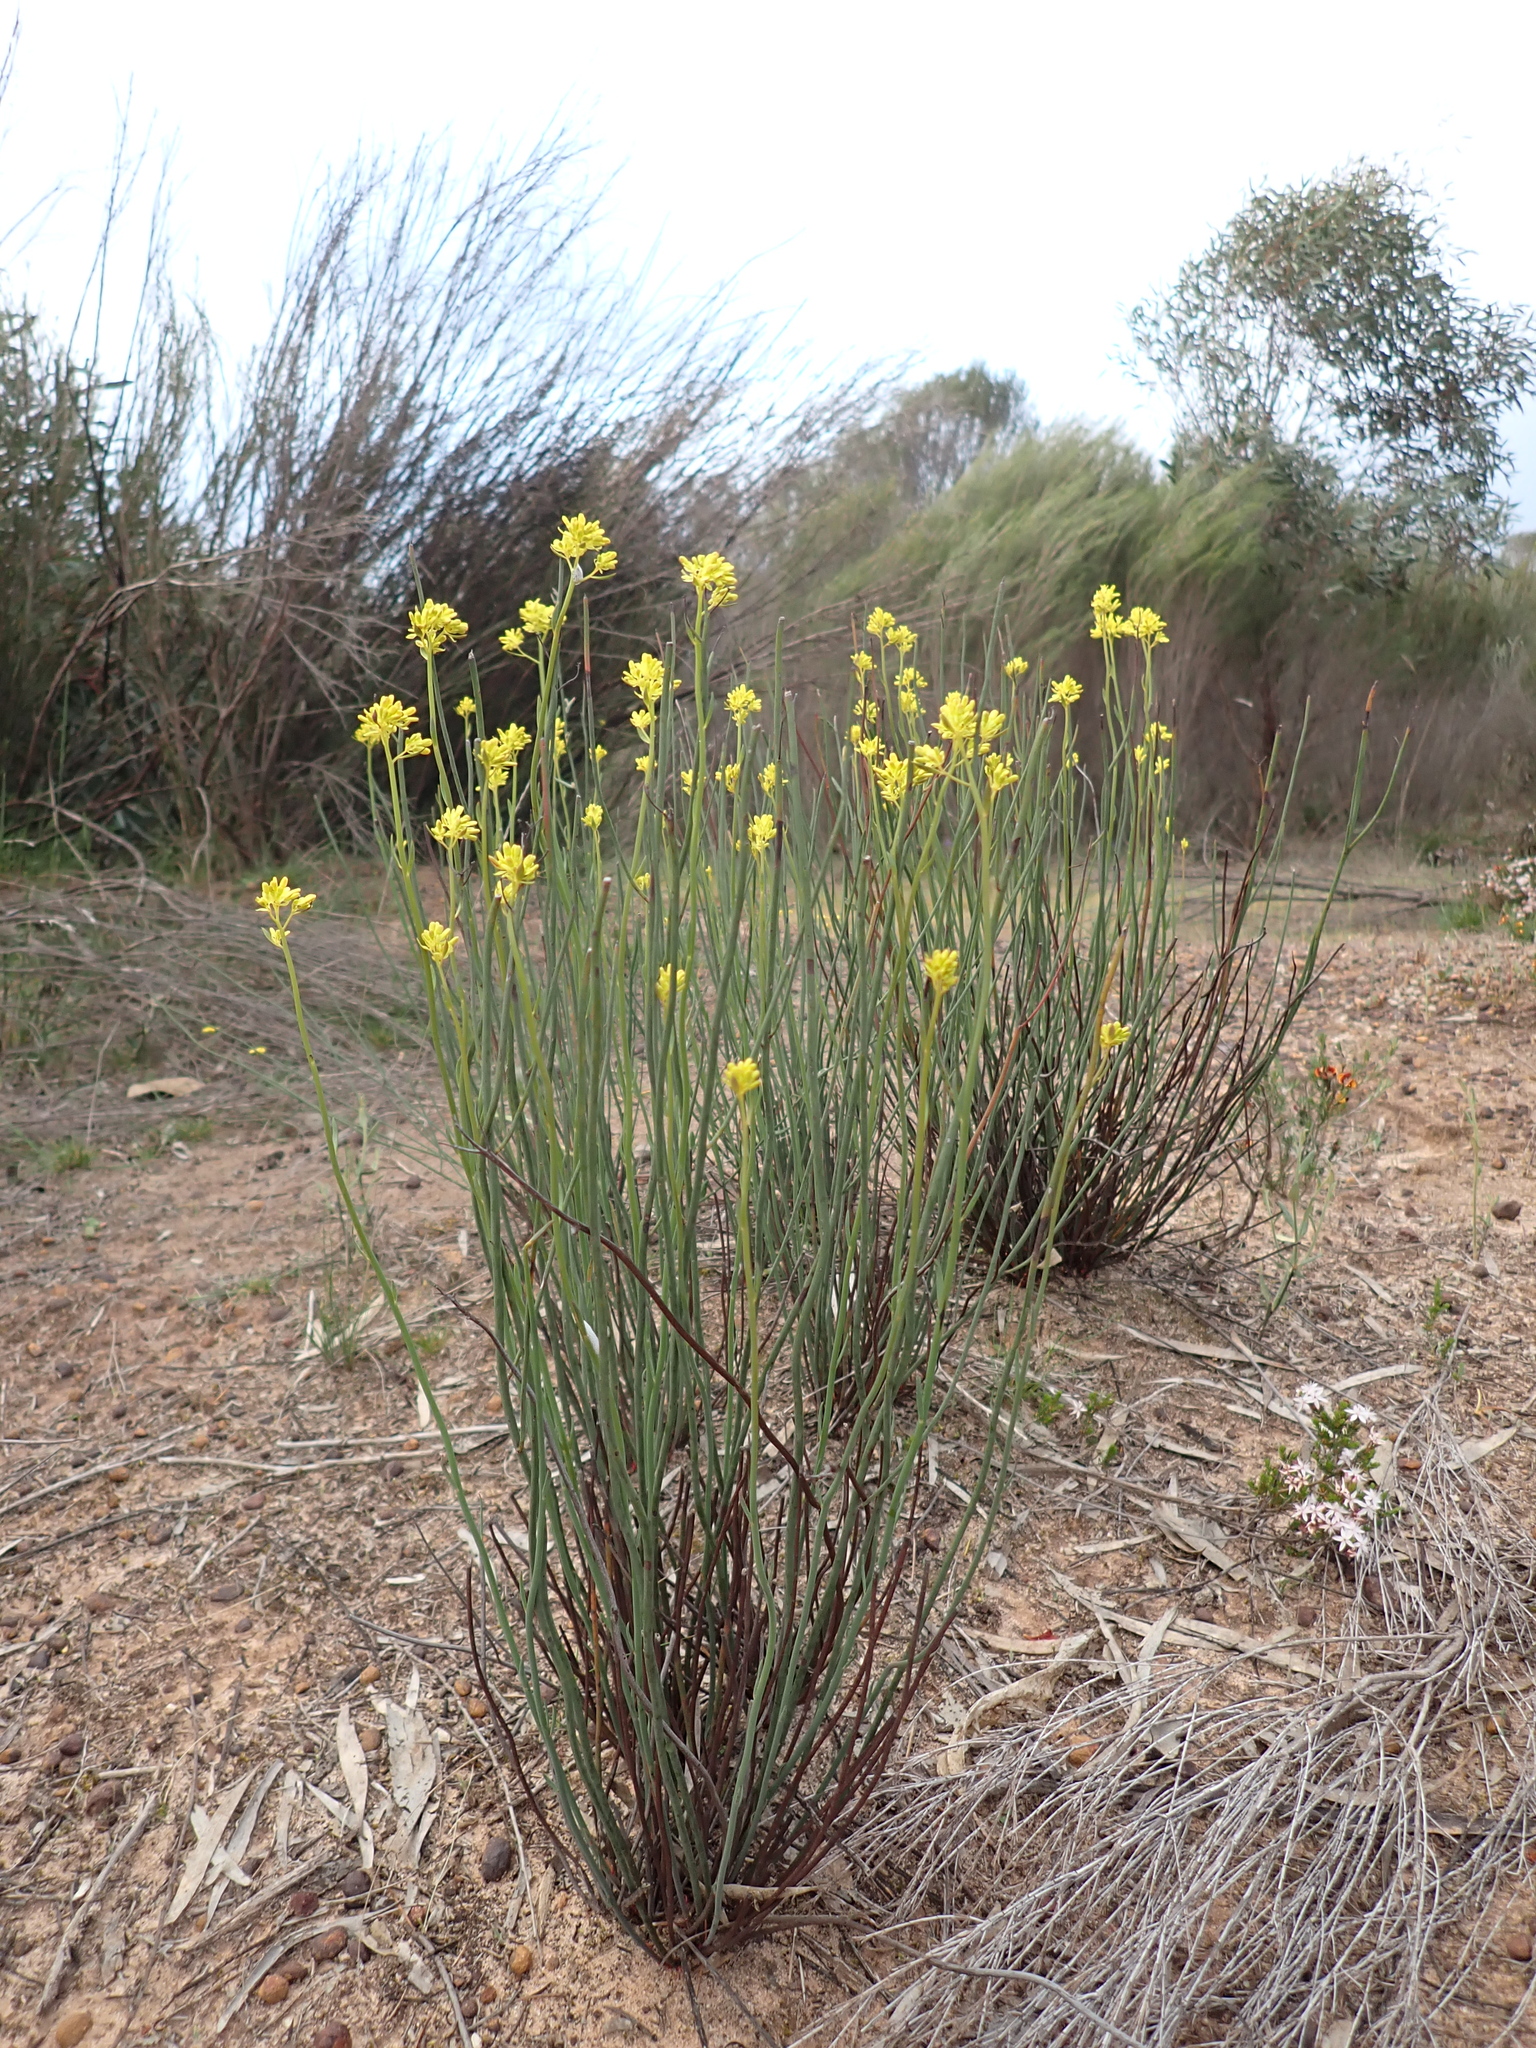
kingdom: Plantae
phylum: Tracheophyta
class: Magnoliopsida
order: Saxifragales
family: Haloragaceae
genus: Glischrocaryon
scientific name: Glischrocaryon behrii
